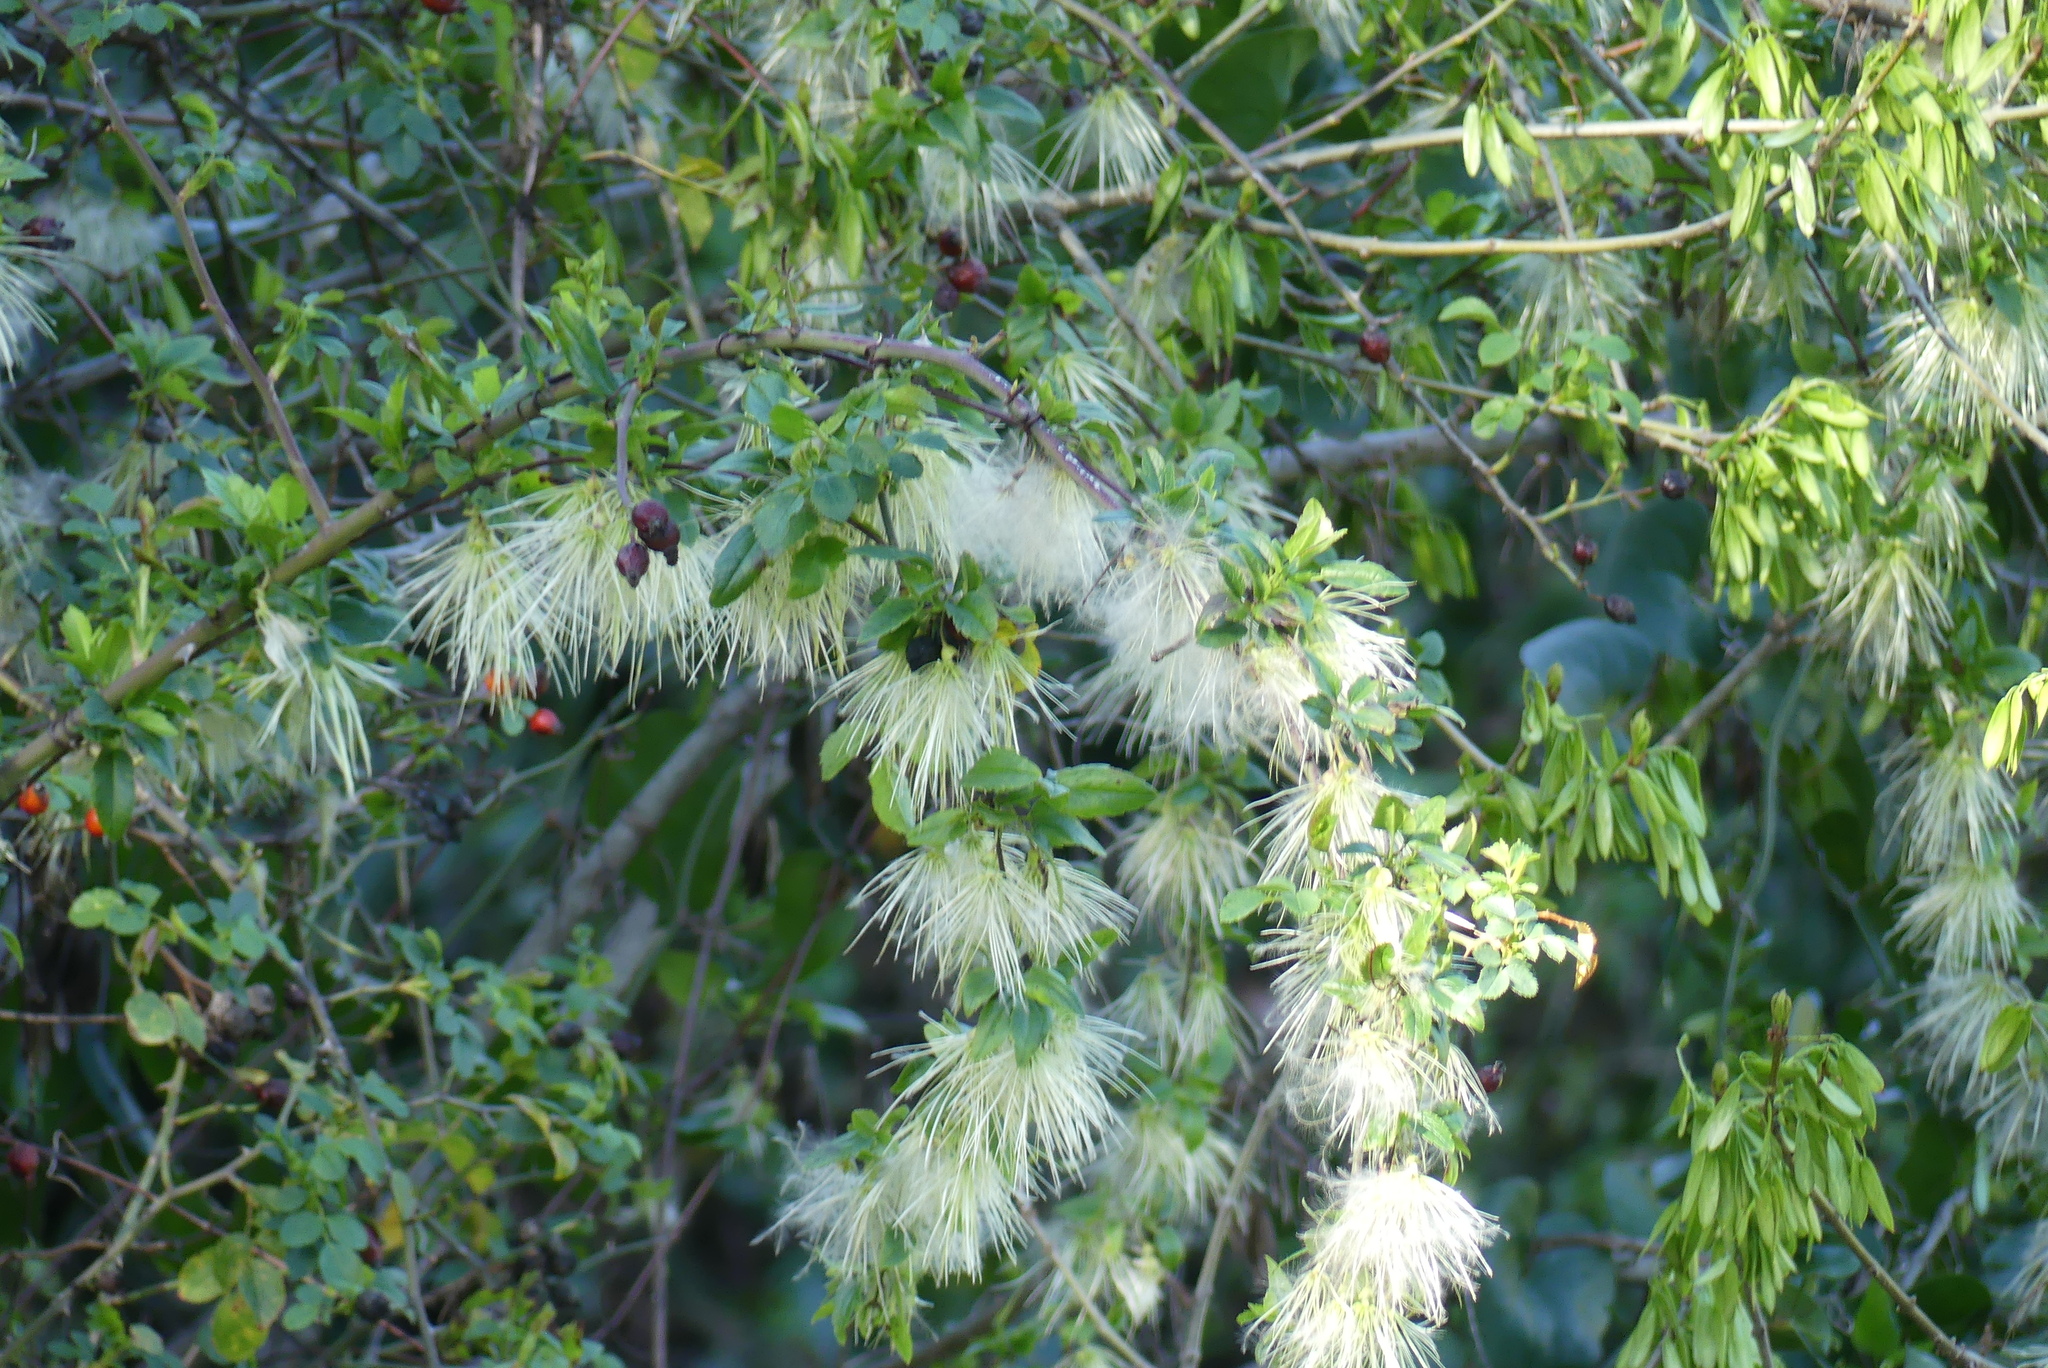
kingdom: Plantae
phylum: Tracheophyta
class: Magnoliopsida
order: Ranunculales
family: Ranunculaceae
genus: Clematis
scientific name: Clematis cirrhosa
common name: Early virgin's-bower
